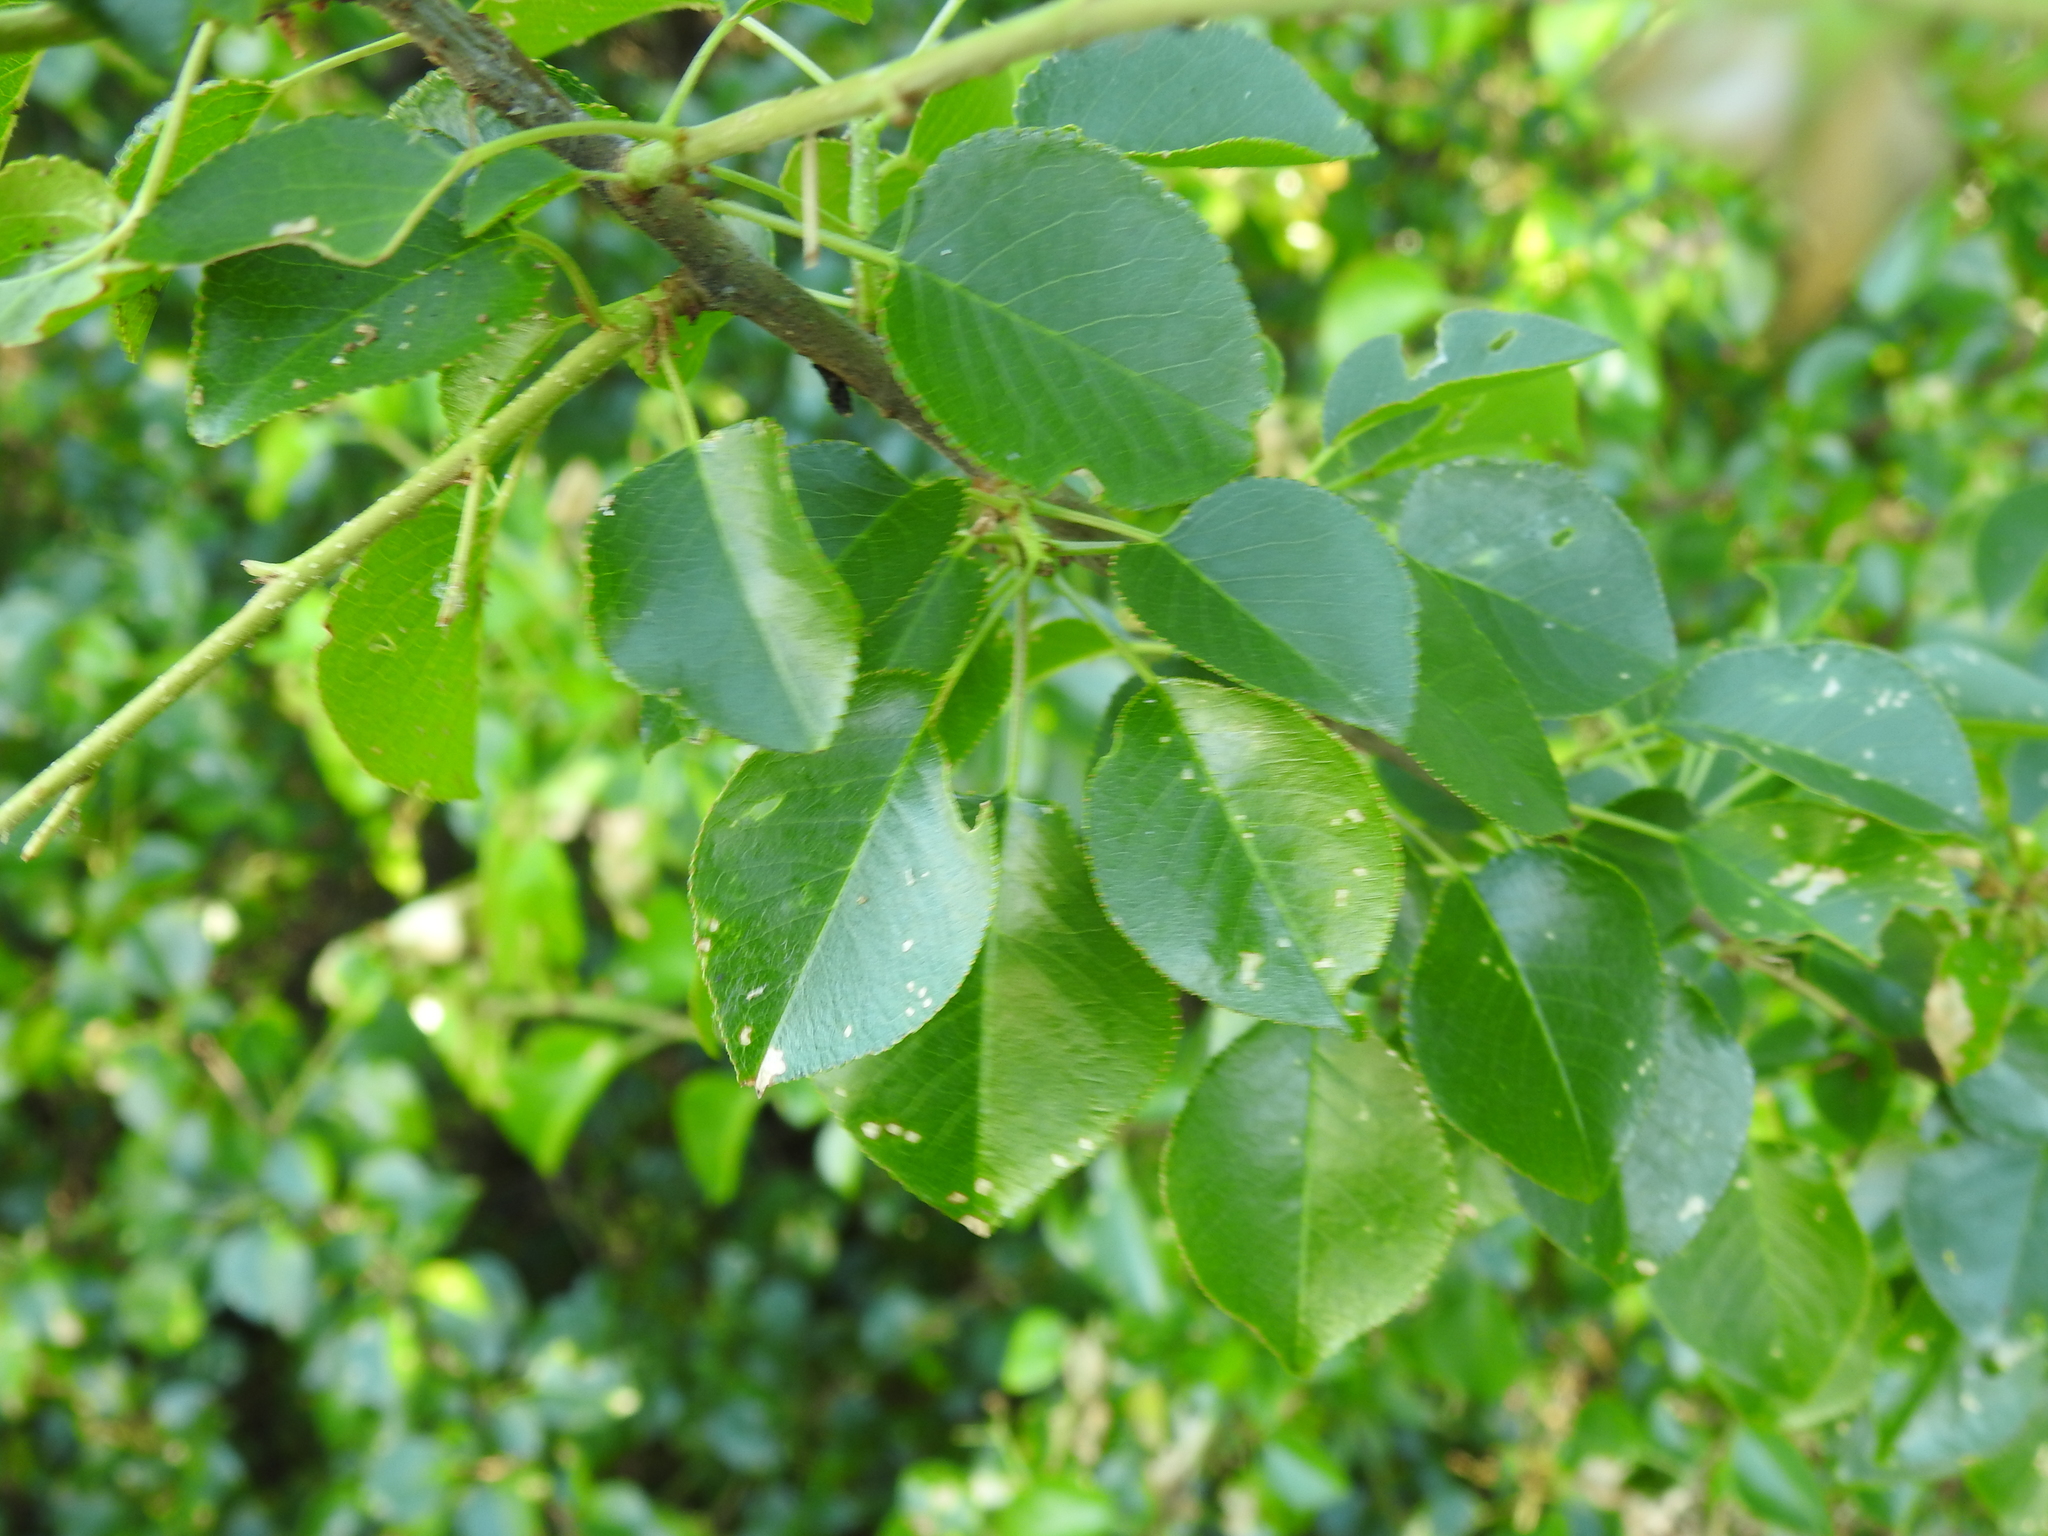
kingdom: Plantae
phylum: Tracheophyta
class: Magnoliopsida
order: Rosales
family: Rosaceae
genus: Prunus
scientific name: Prunus mahaleb
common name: Mahaleb cherry
